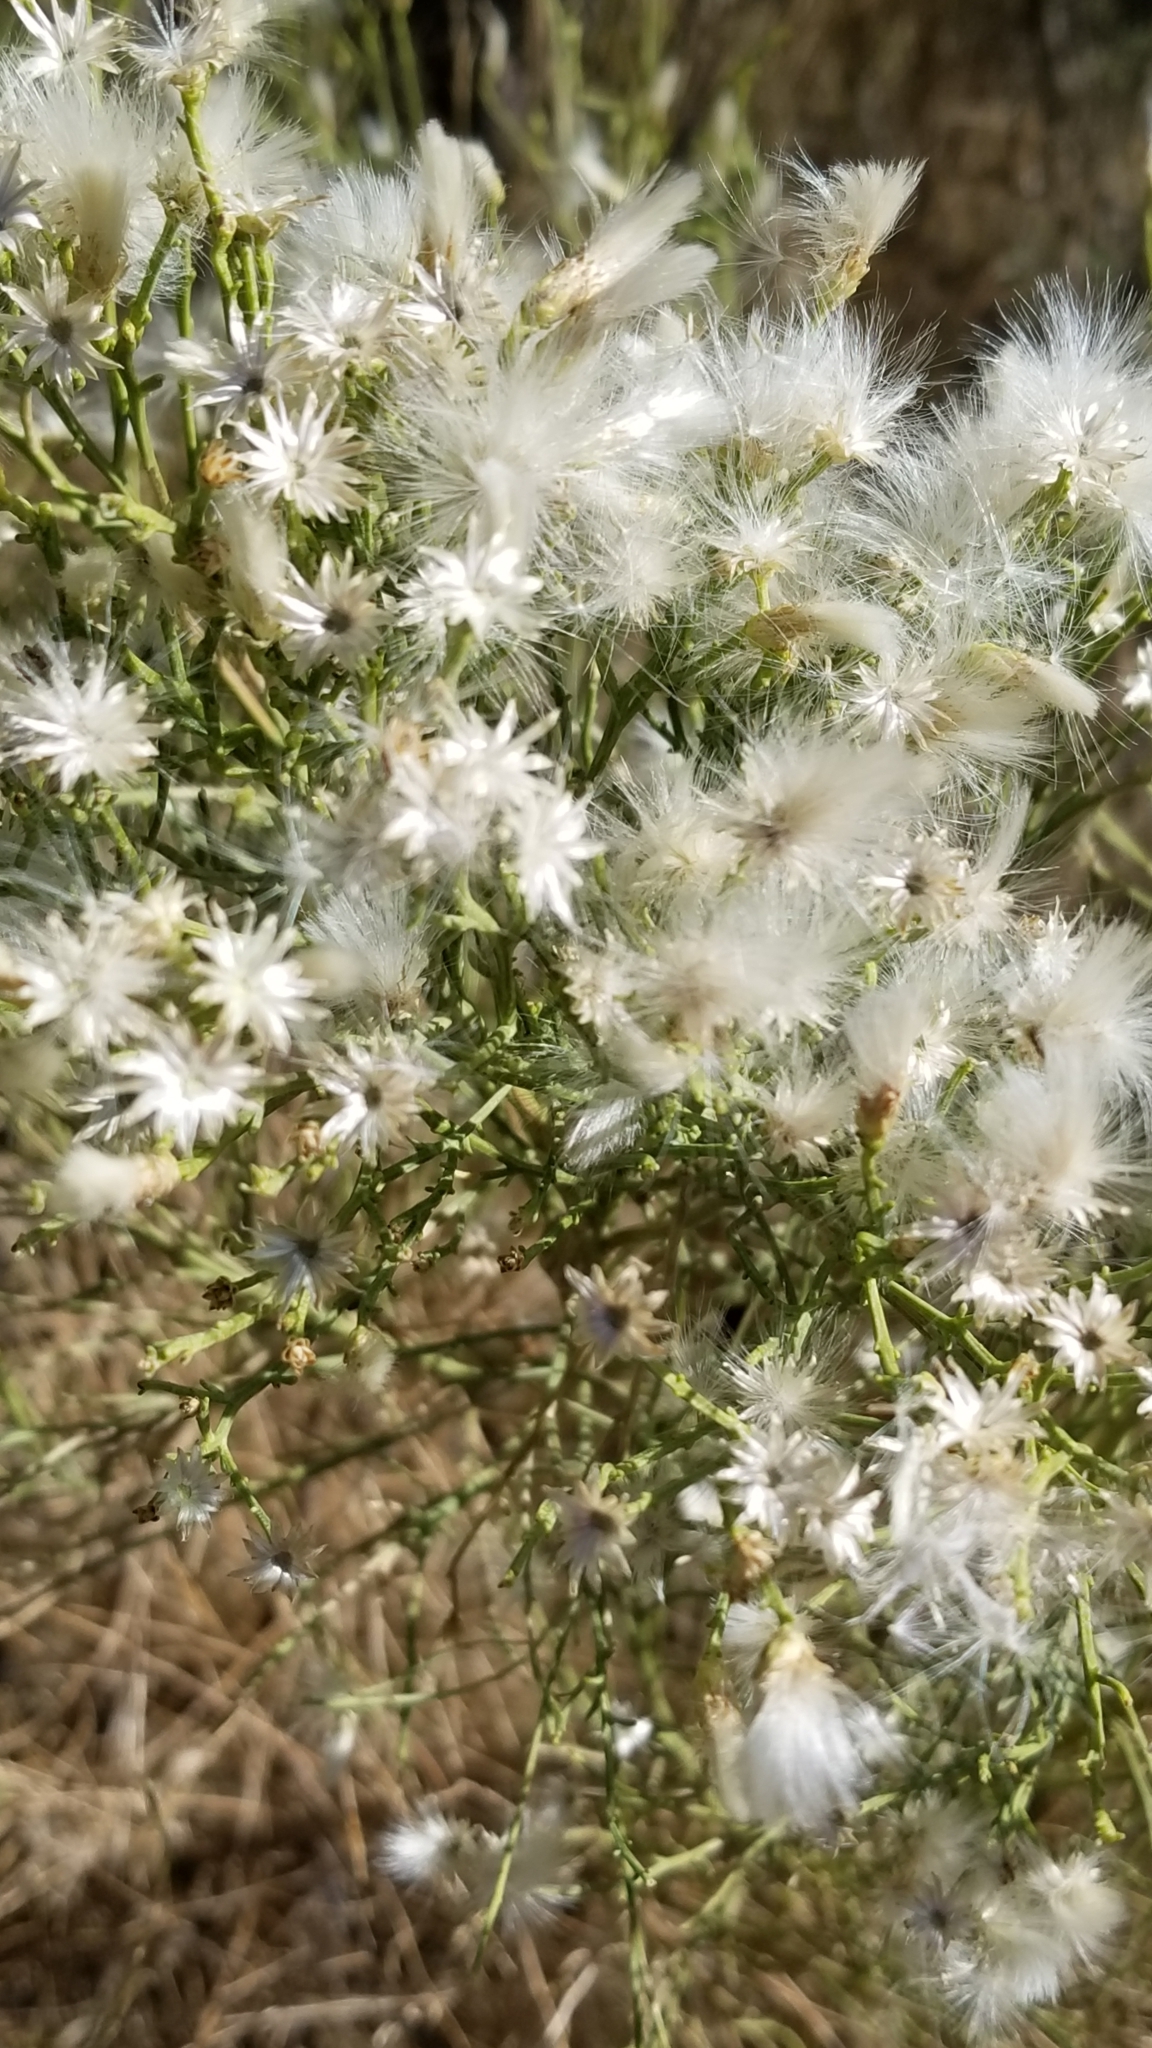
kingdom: Plantae
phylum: Tracheophyta
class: Magnoliopsida
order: Asterales
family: Asteraceae
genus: Baccharis
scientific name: Baccharis sarothroides
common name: Desert-broom
